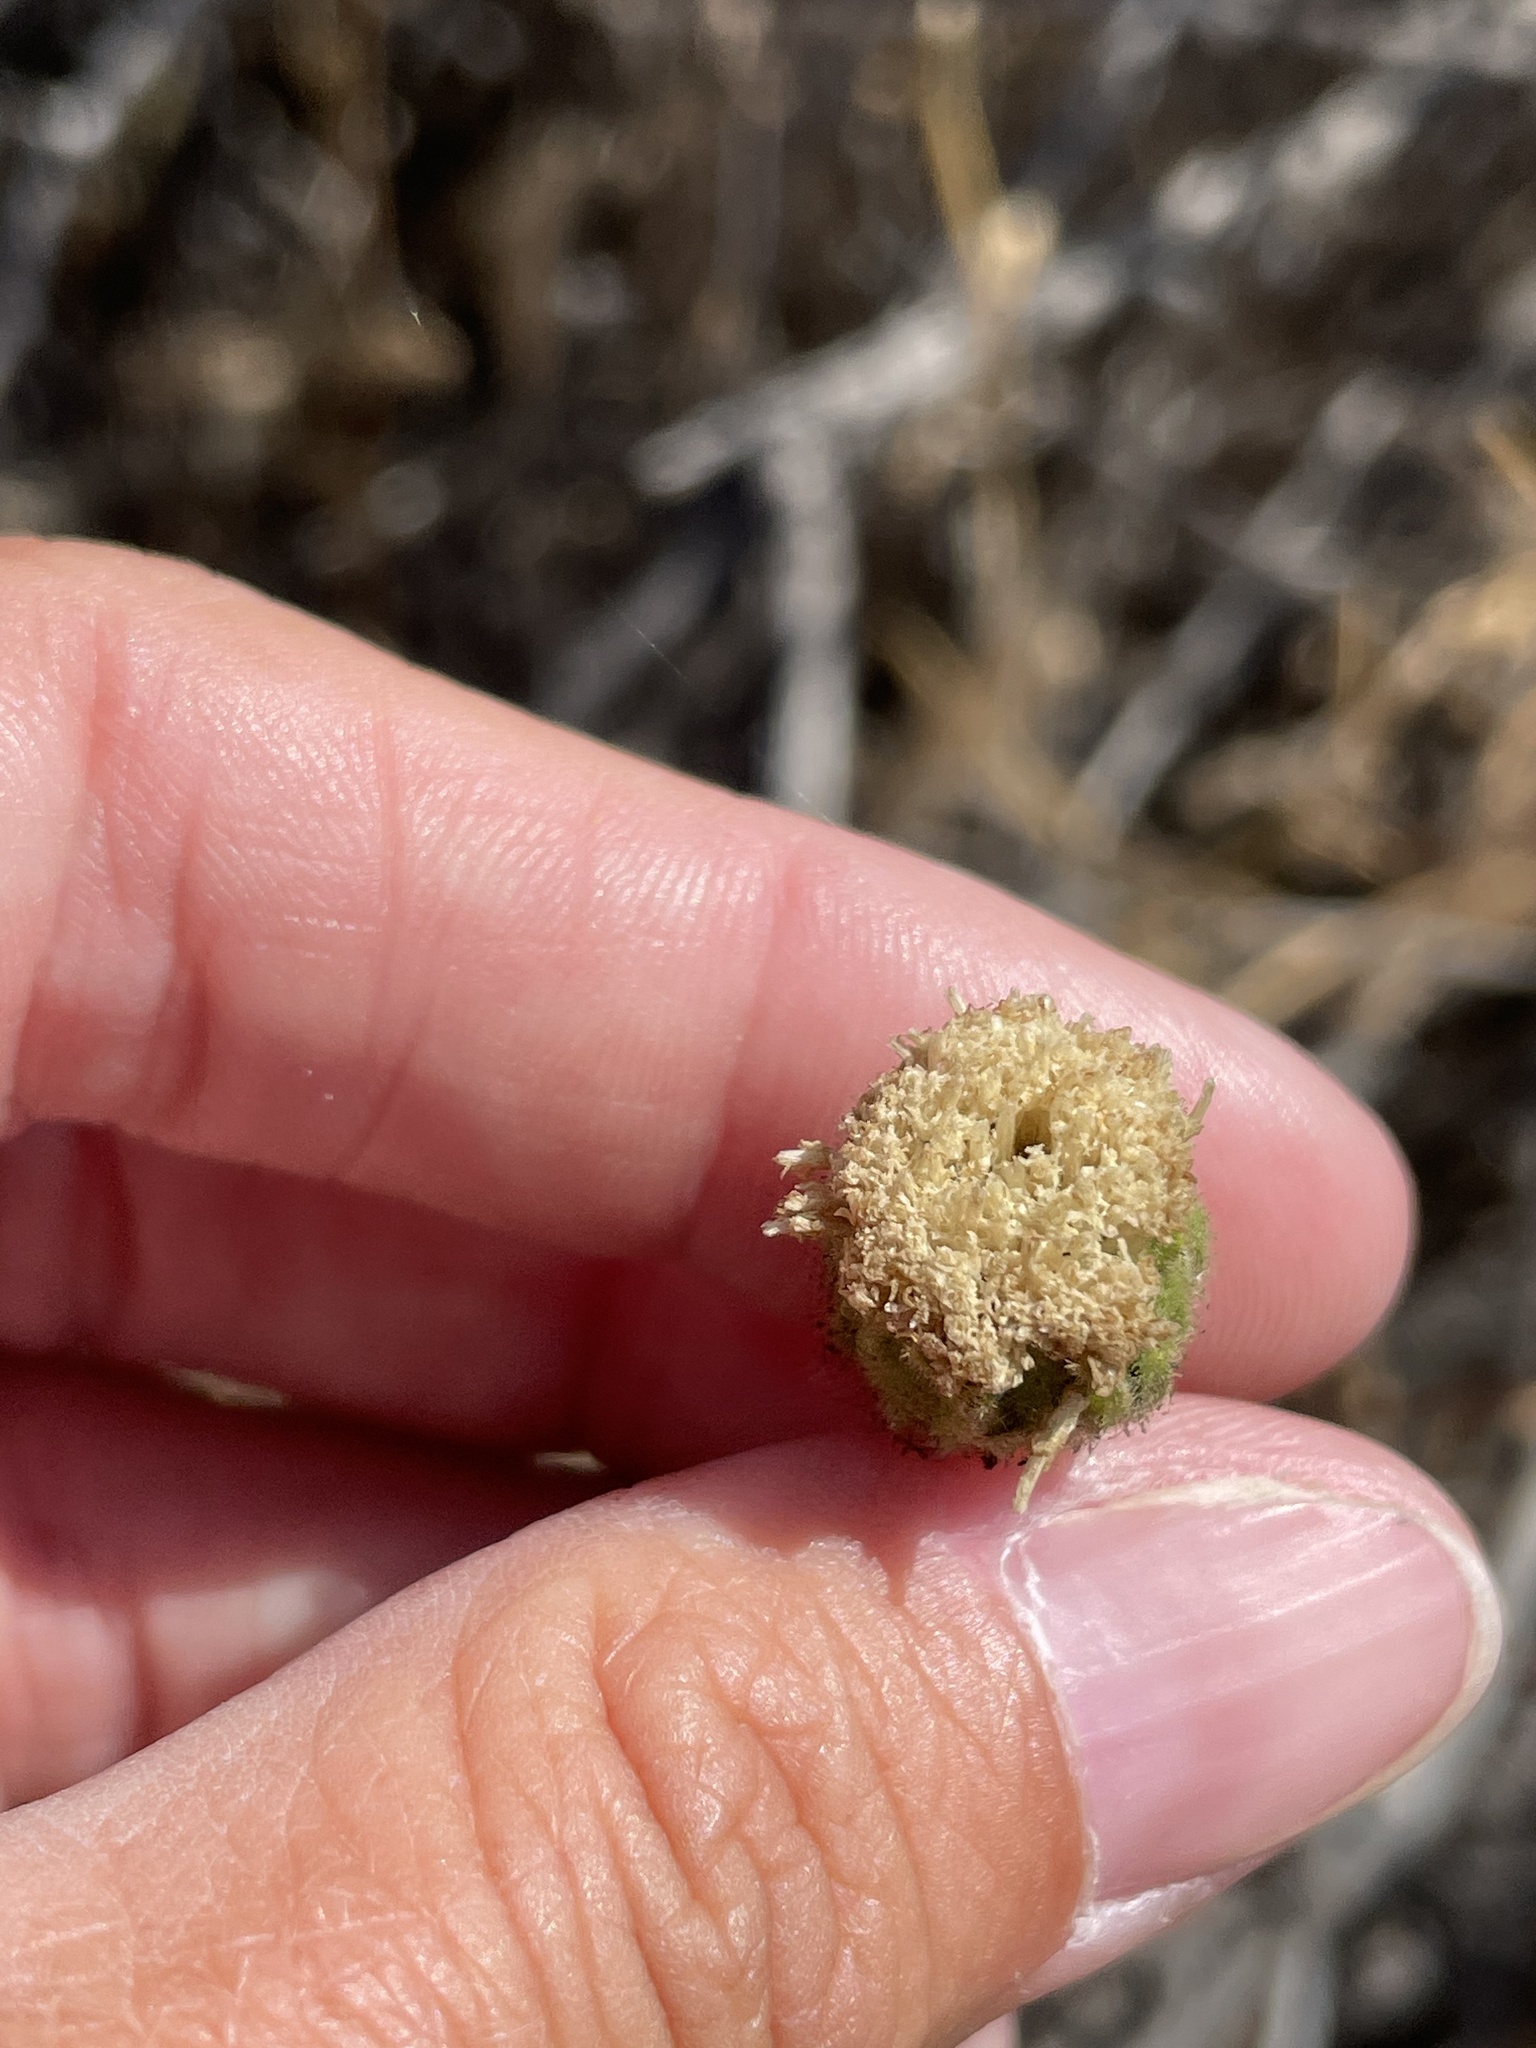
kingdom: Plantae
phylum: Tracheophyta
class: Magnoliopsida
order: Asterales
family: Asteraceae
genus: Chaenactis
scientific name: Chaenactis artemisiifolia
